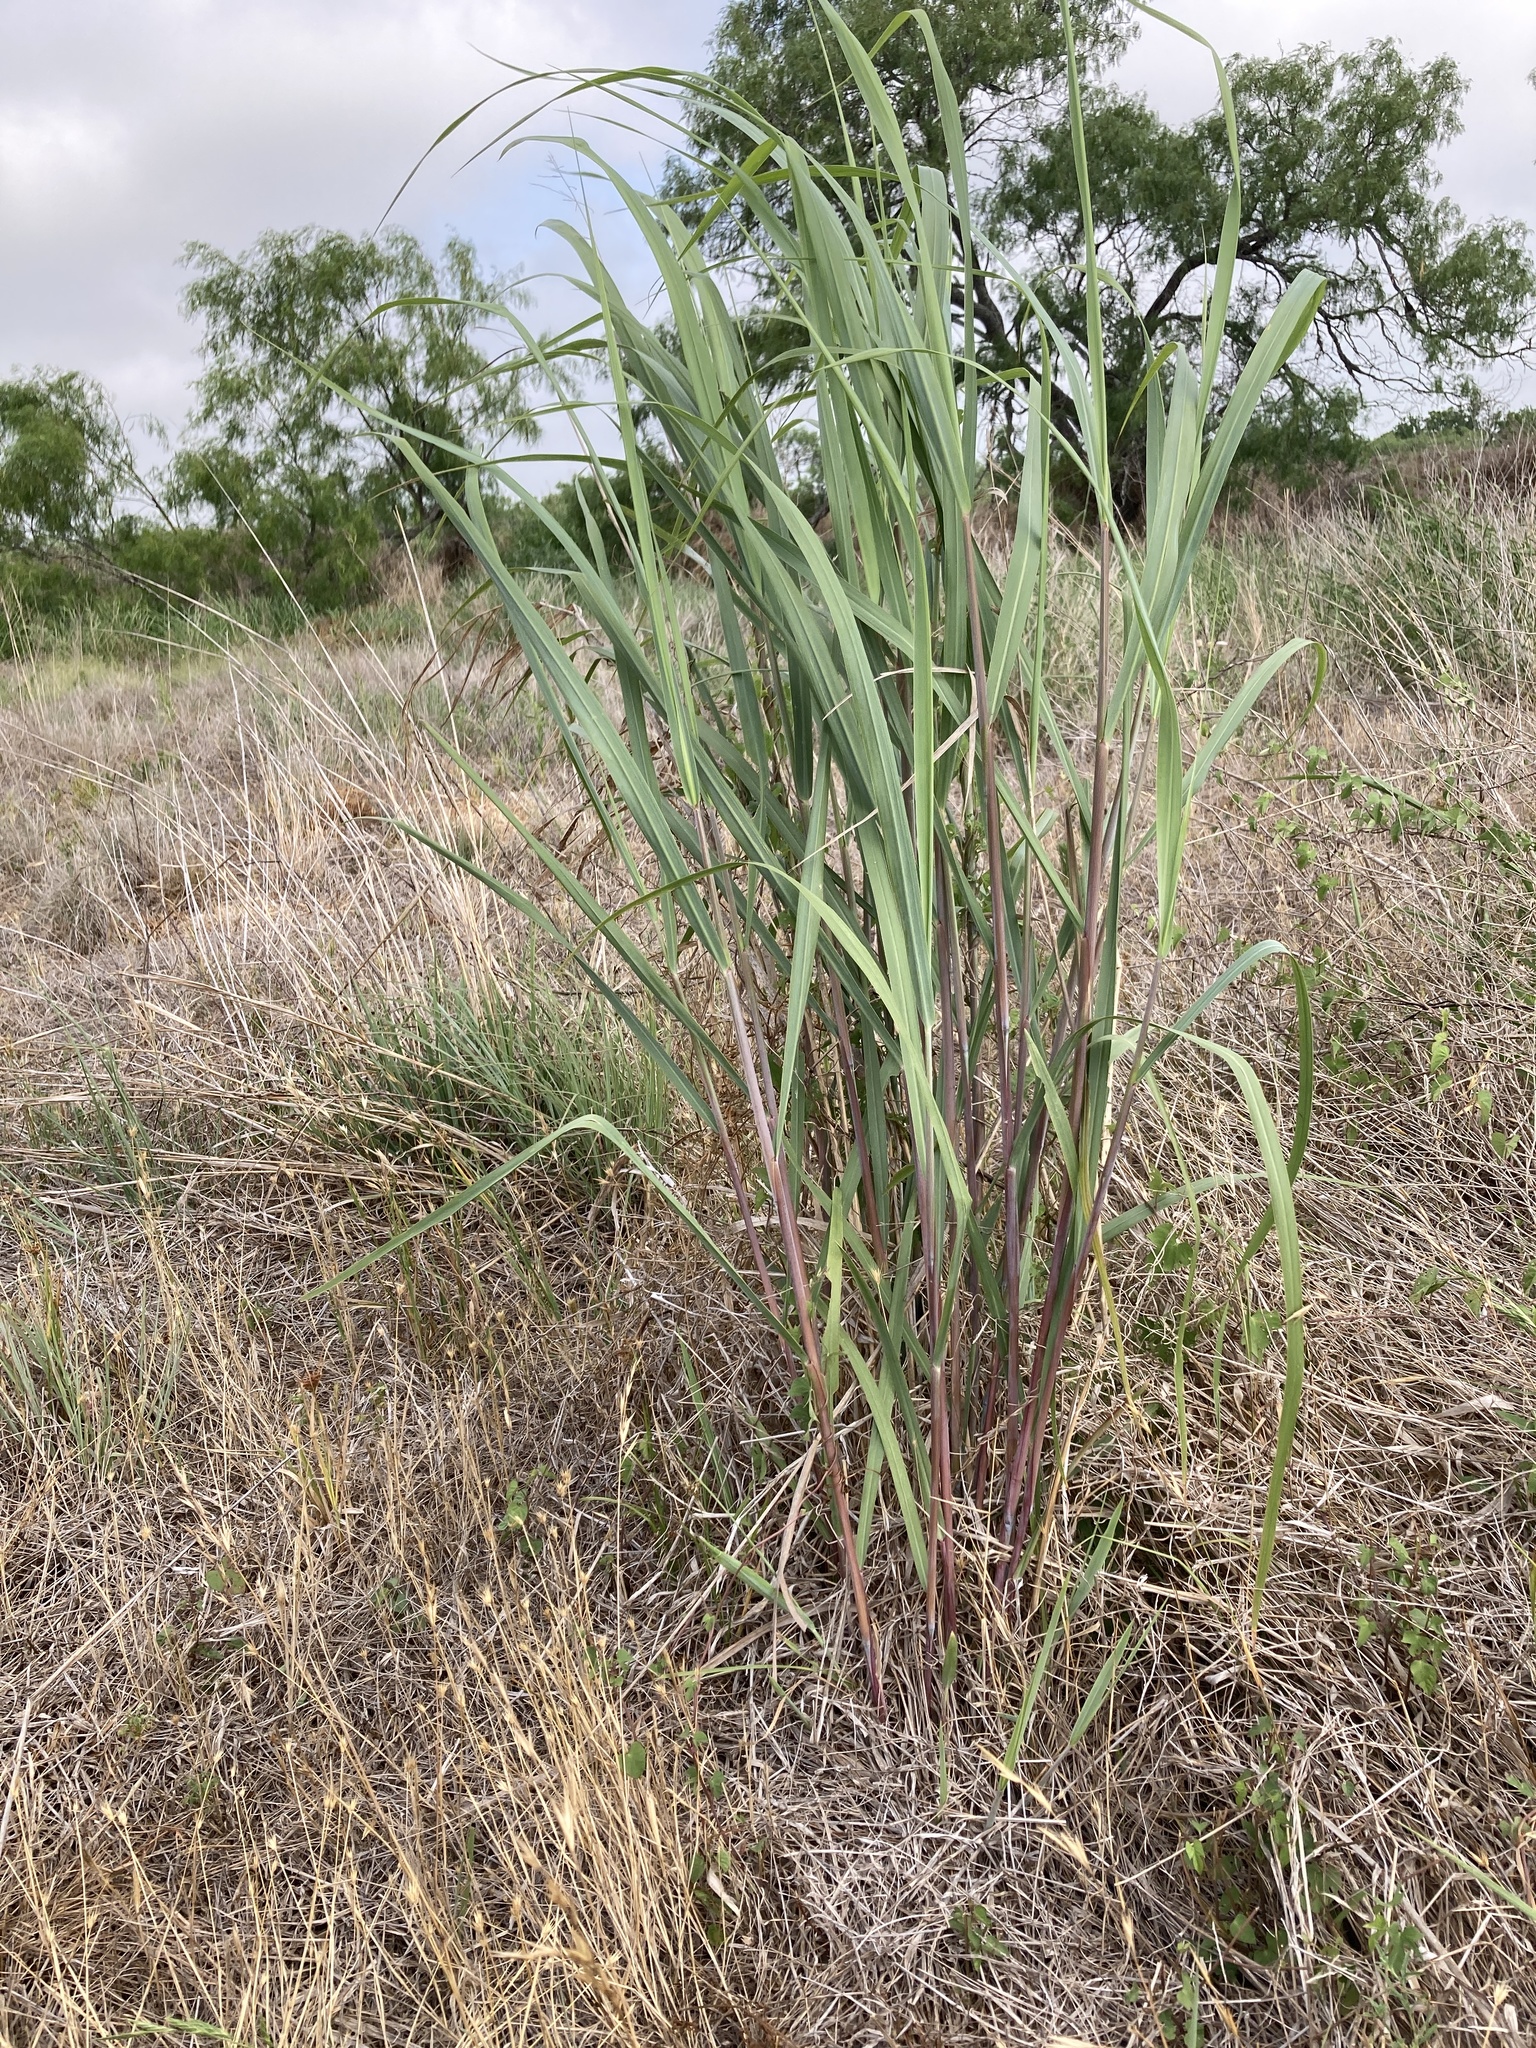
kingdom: Plantae
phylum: Tracheophyta
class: Liliopsida
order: Poales
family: Poaceae
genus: Panicum
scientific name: Panicum virgatum
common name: Switchgrass
